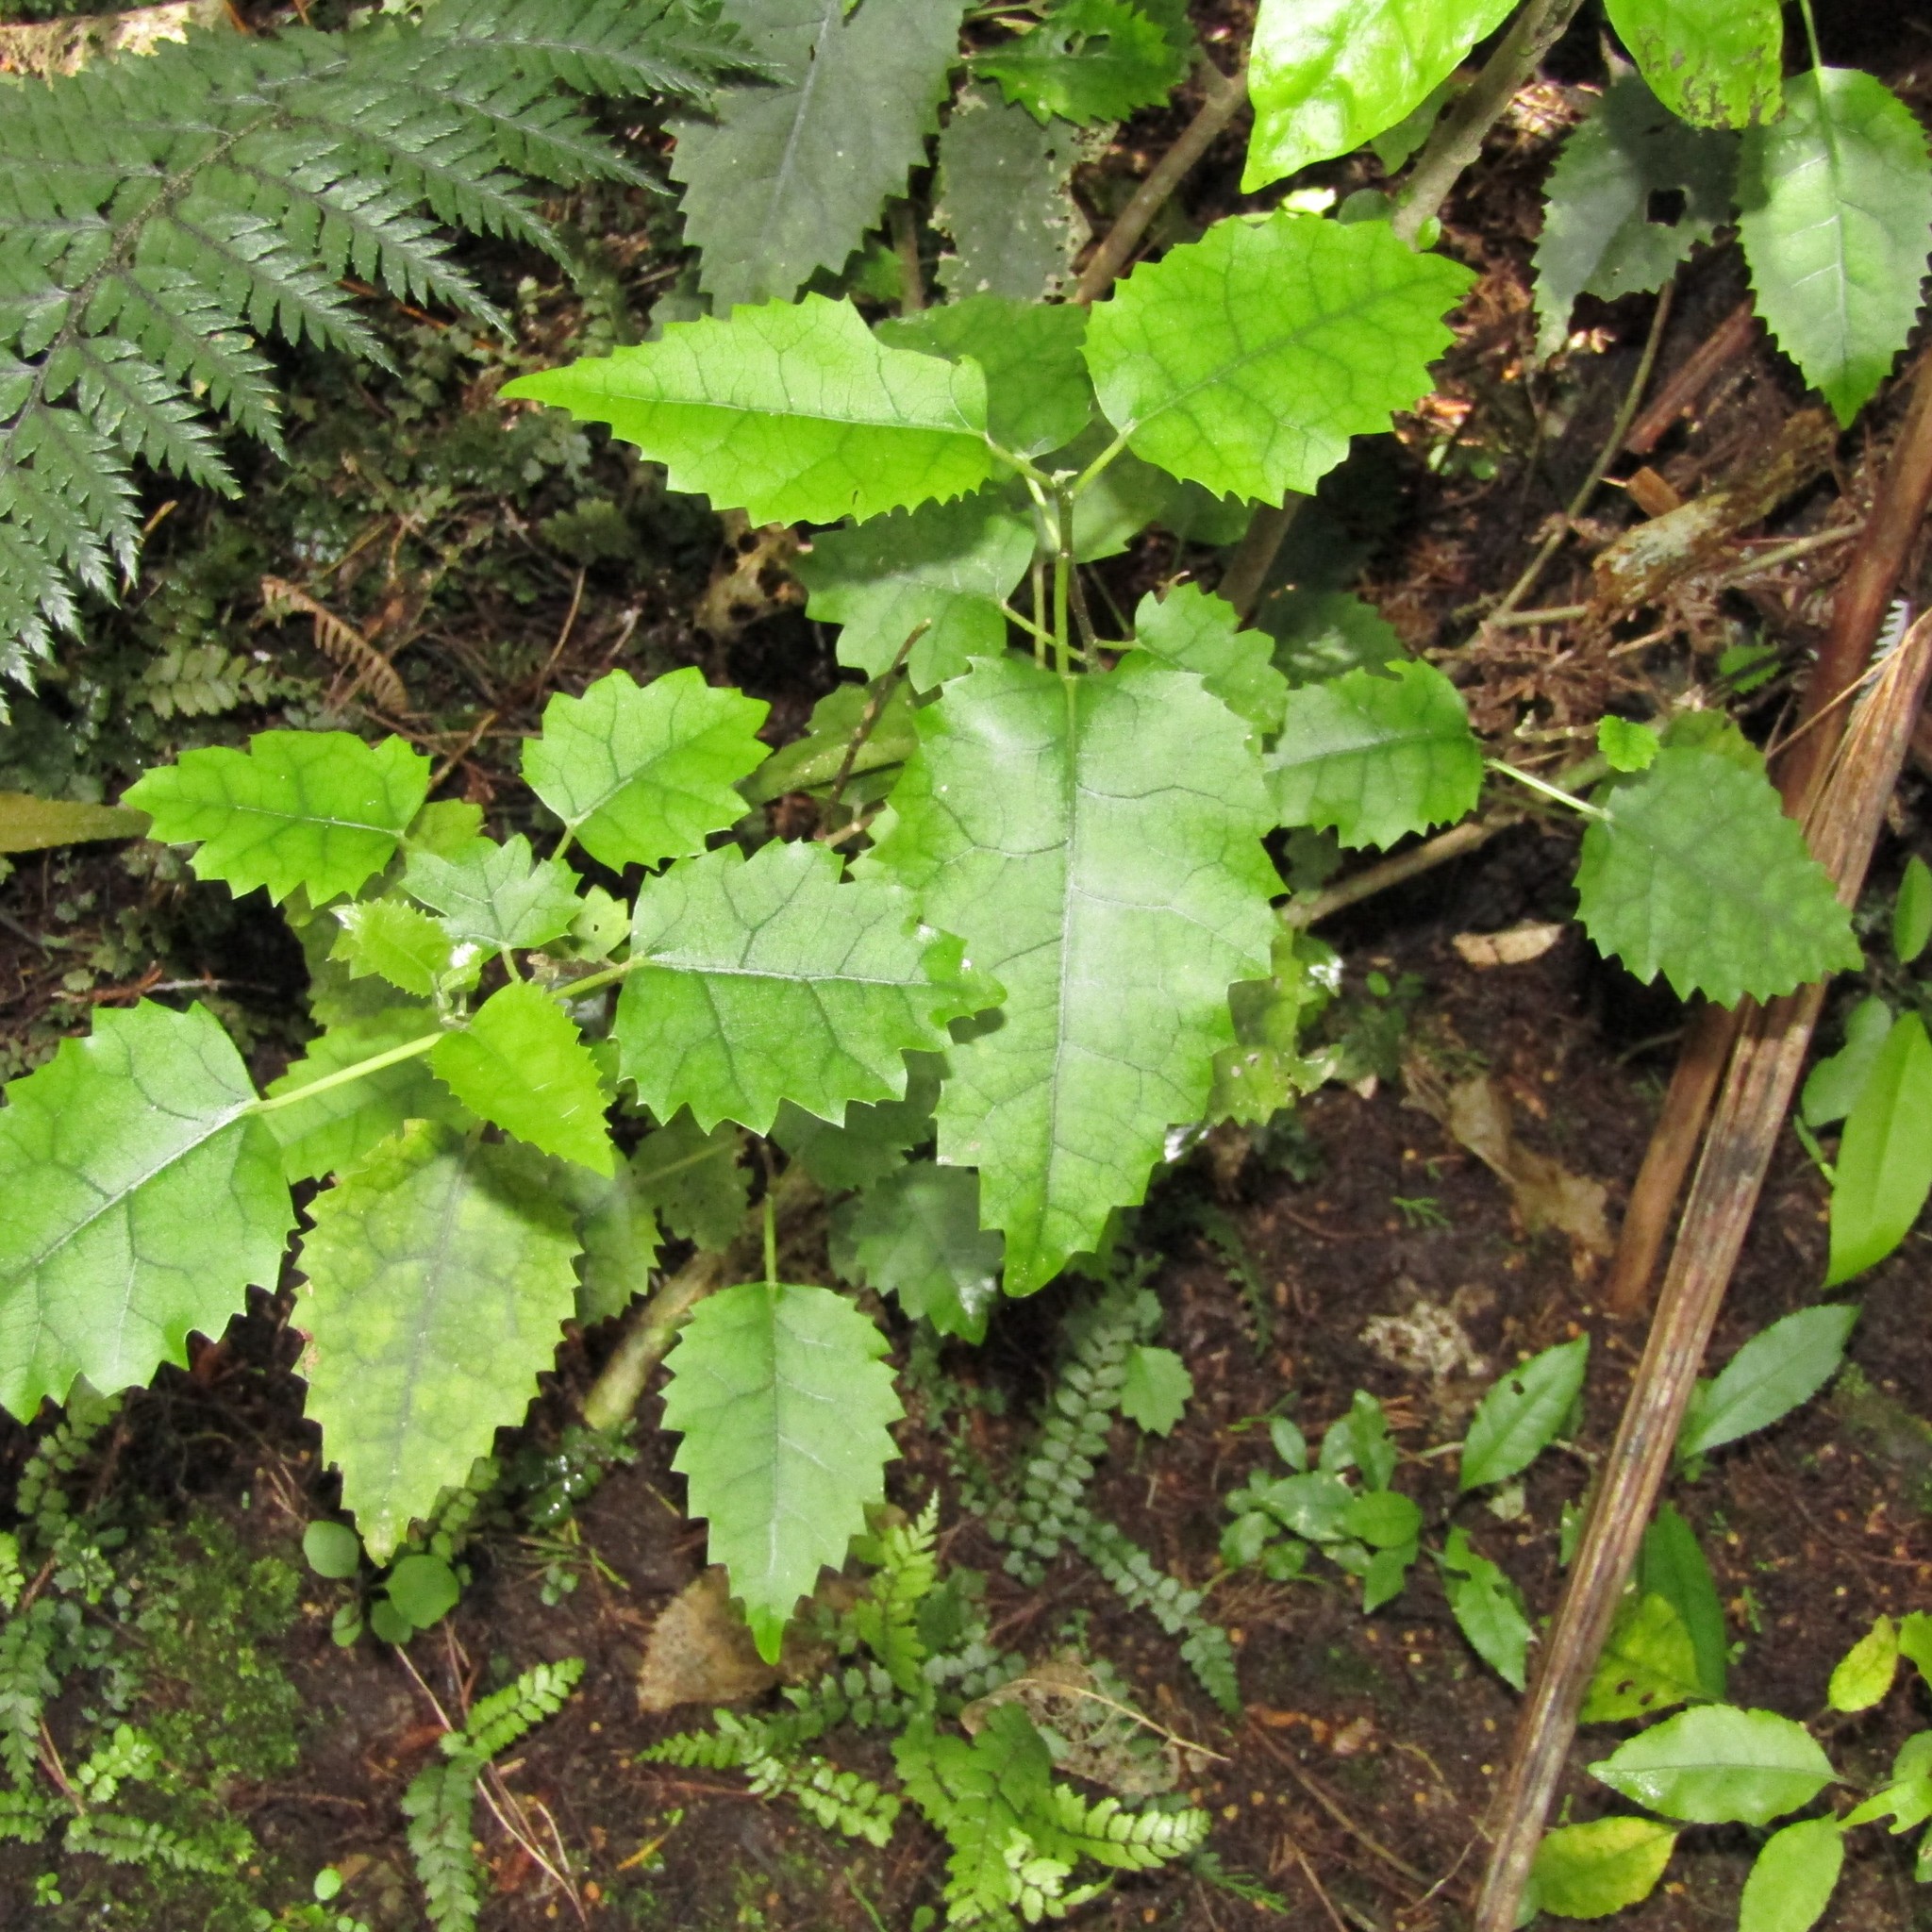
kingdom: Plantae
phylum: Tracheophyta
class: Magnoliopsida
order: Malvales
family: Malvaceae
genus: Hoheria
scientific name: Hoheria populnea
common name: Lacebark
